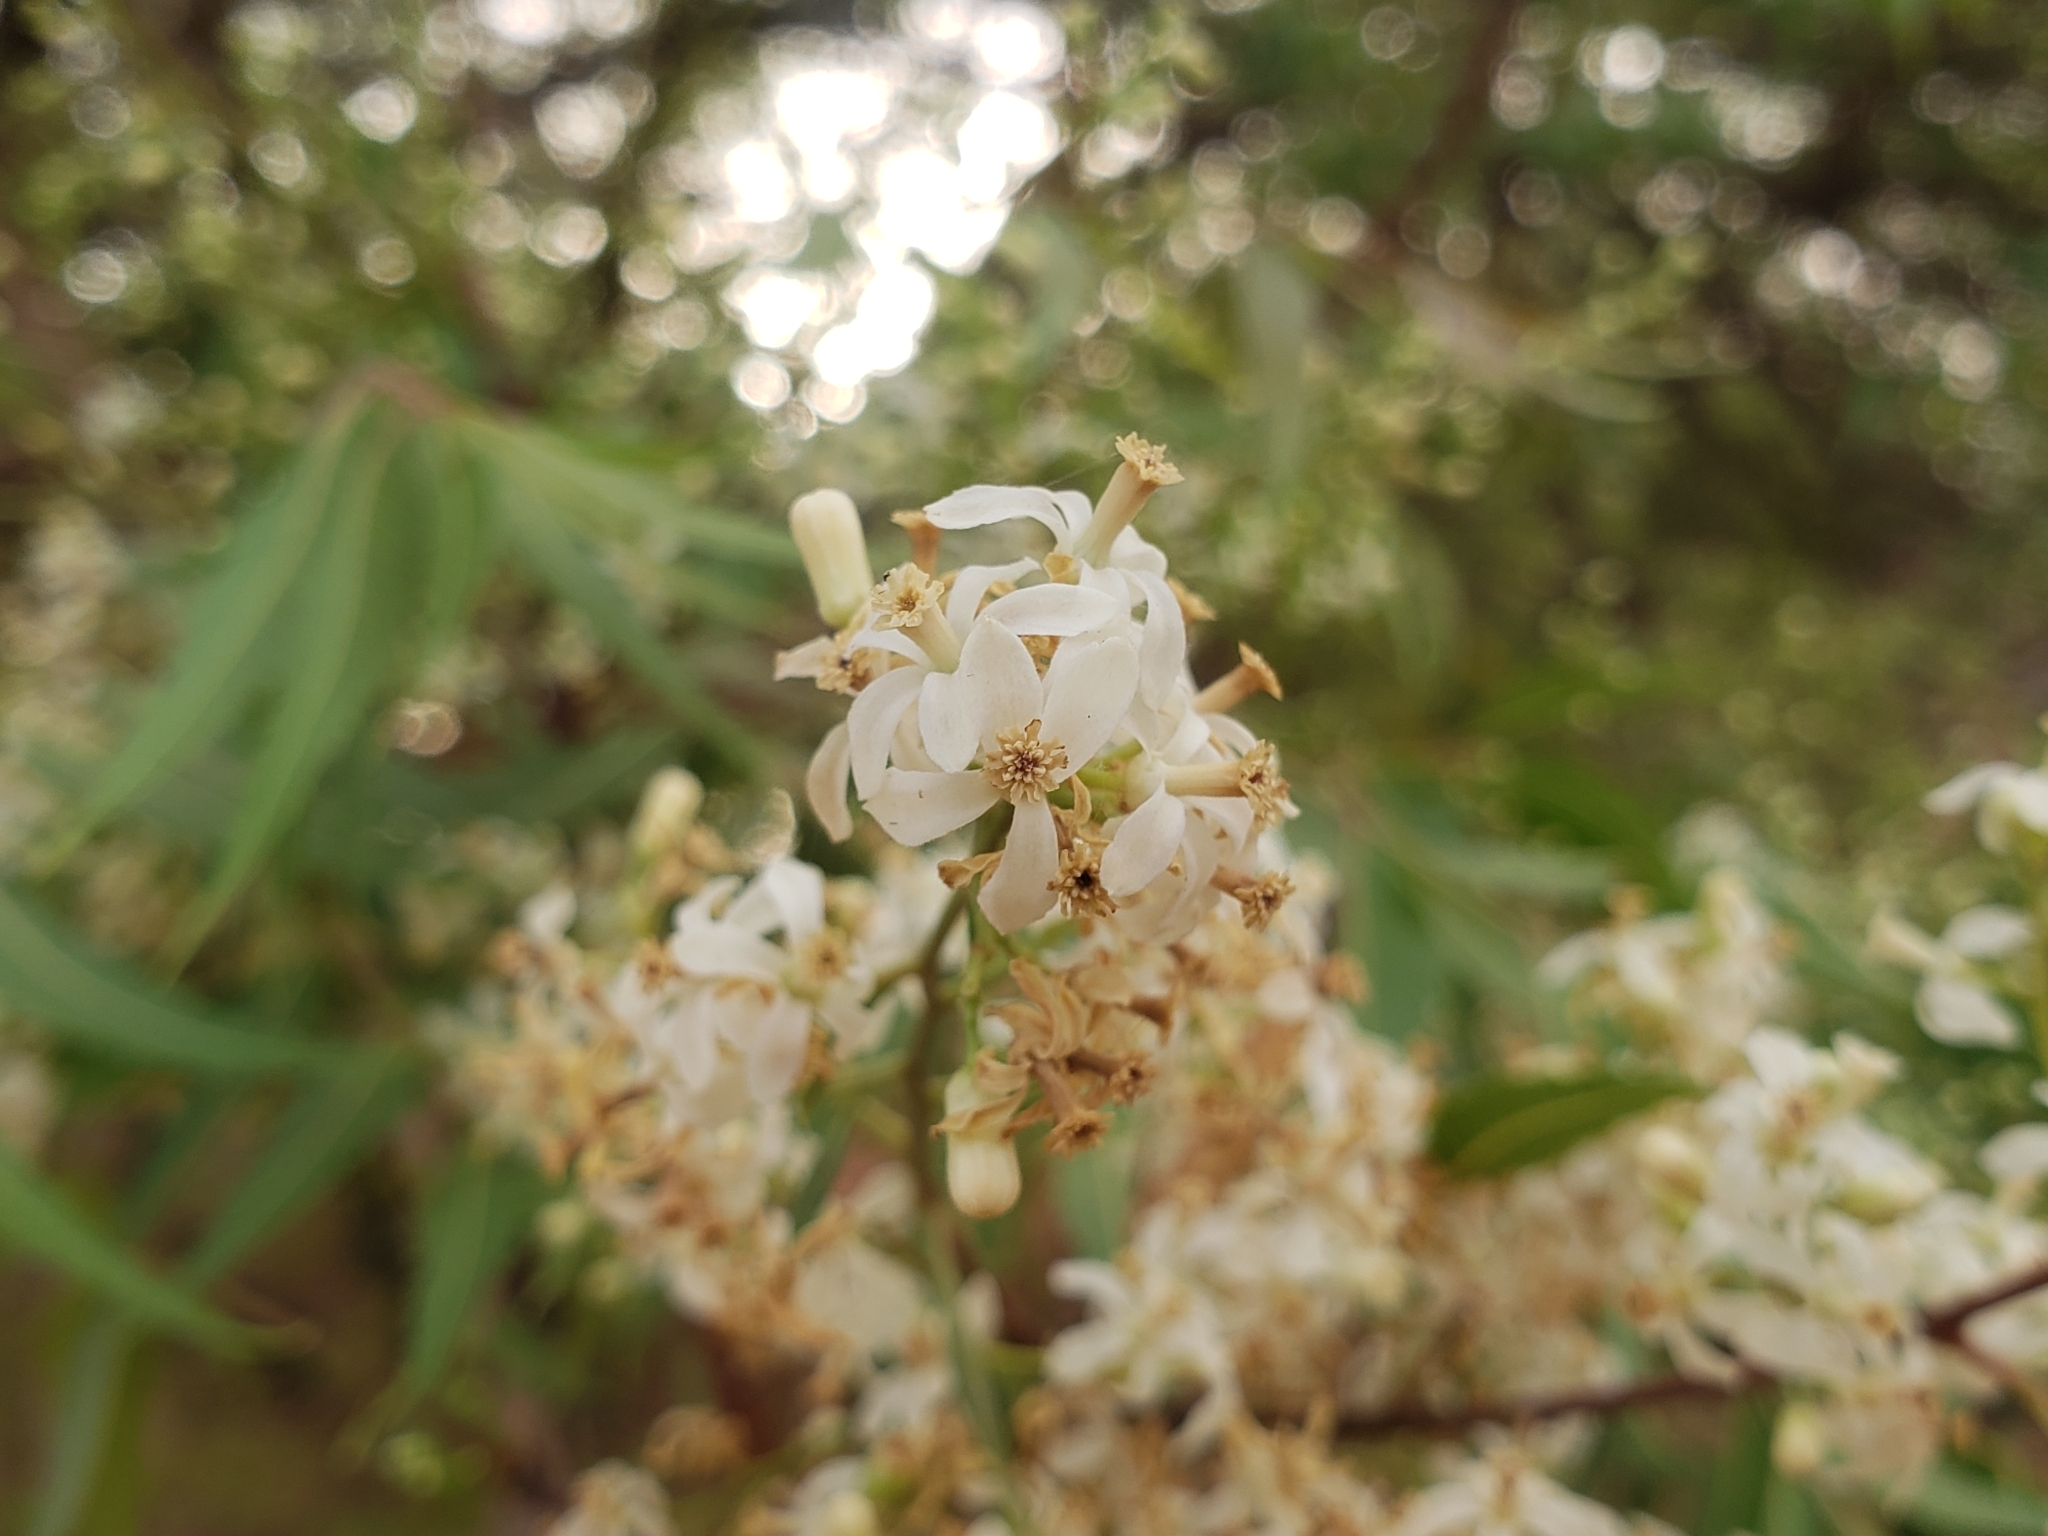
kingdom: Plantae
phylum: Tracheophyta
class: Magnoliopsida
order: Sapindales
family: Meliaceae
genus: Azadirachta
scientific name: Azadirachta indica
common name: Neem
